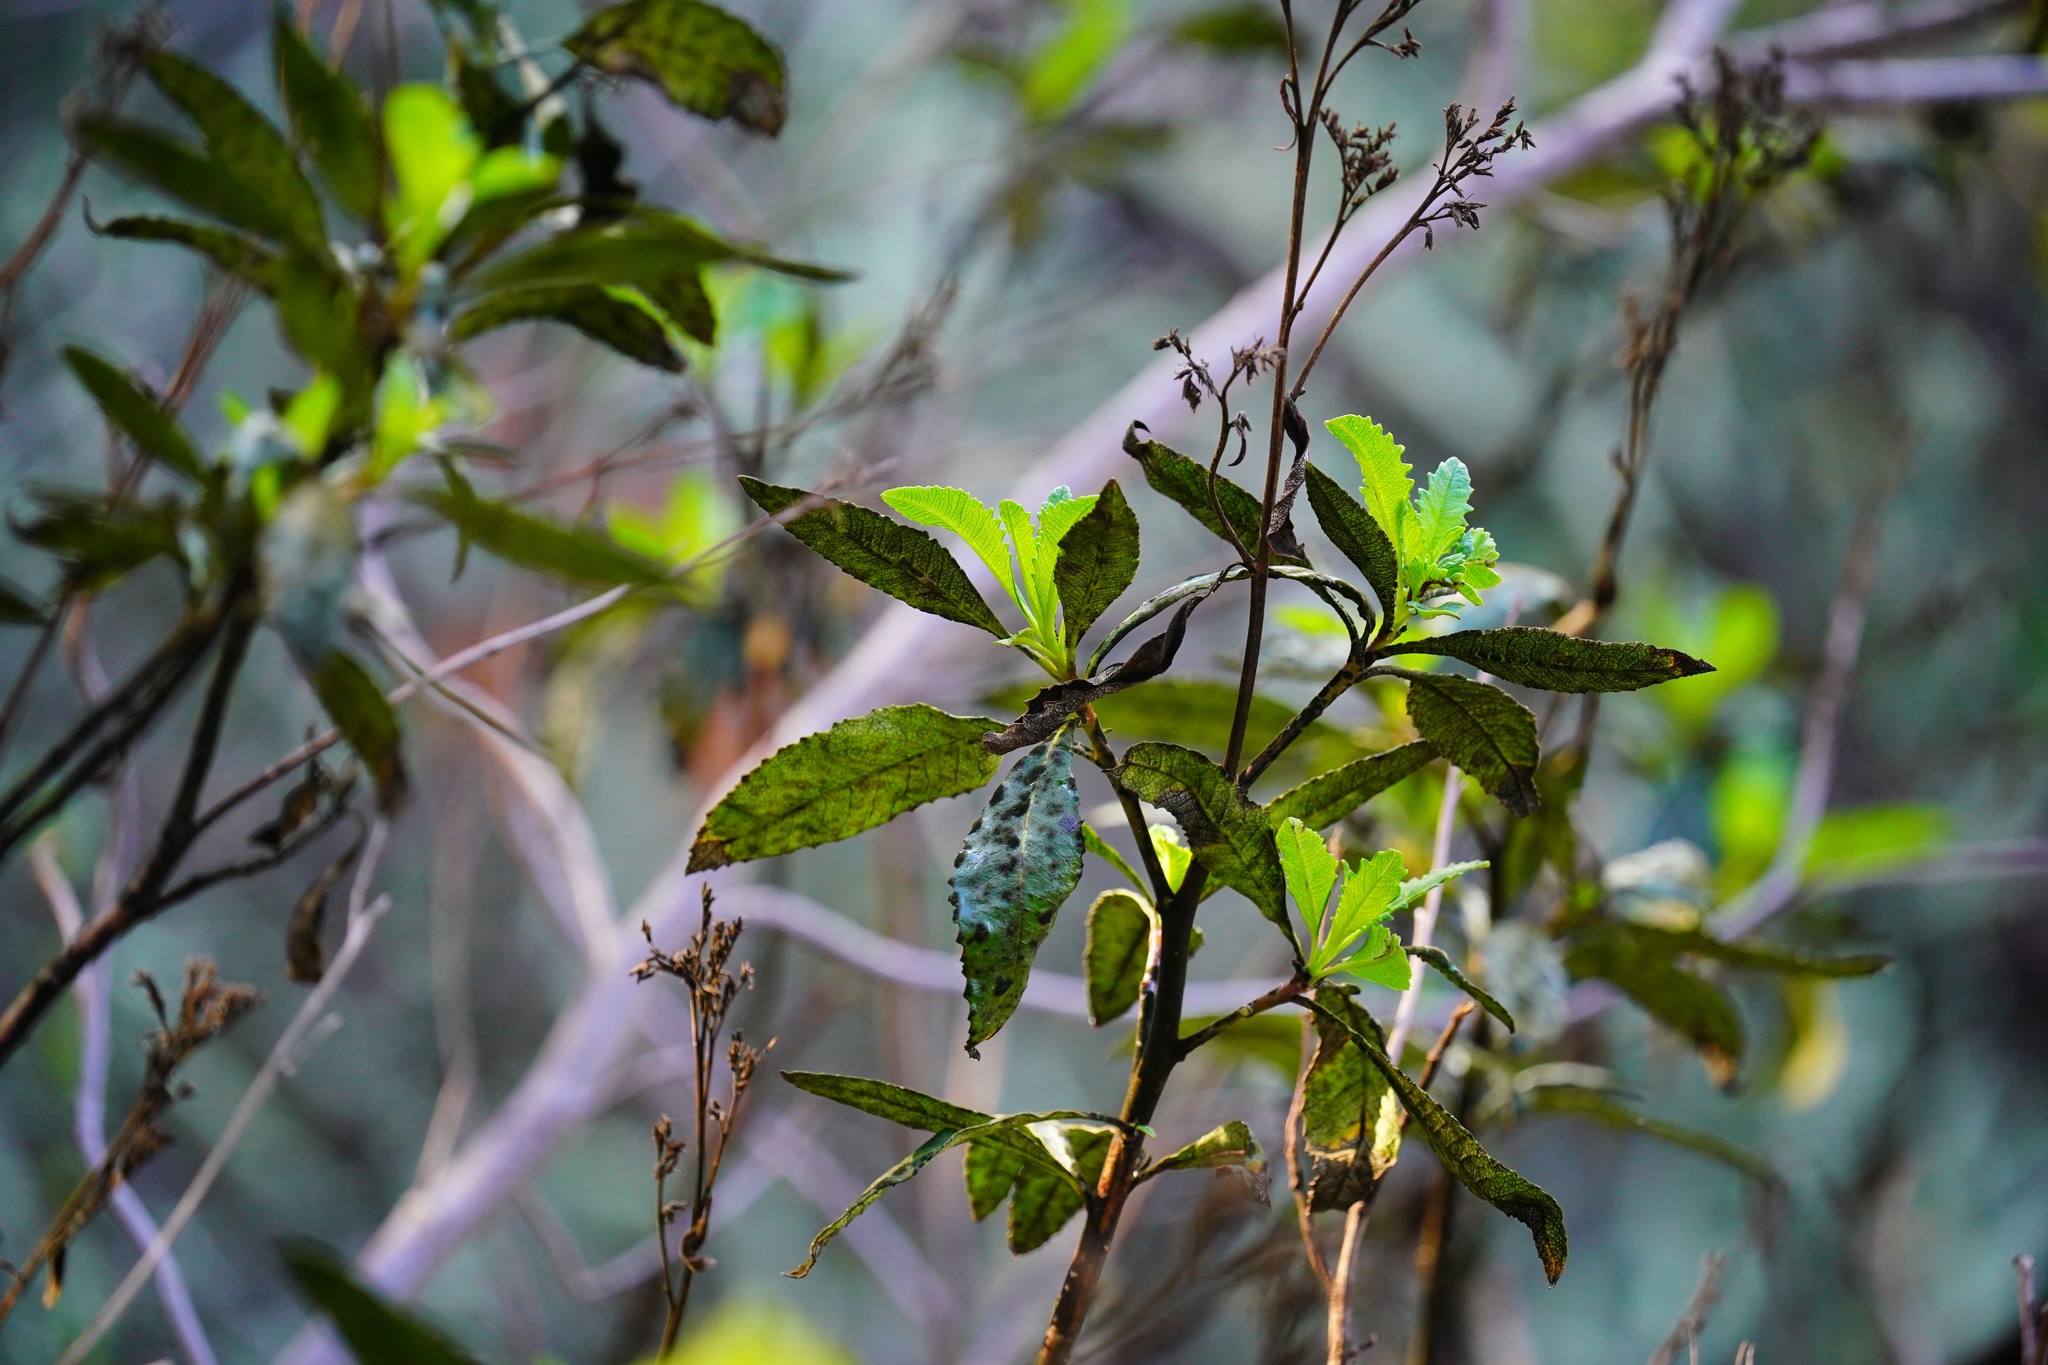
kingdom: Plantae
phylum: Tracheophyta
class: Magnoliopsida
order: Boraginales
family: Namaceae
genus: Eriodictyon
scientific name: Eriodictyon californicum
